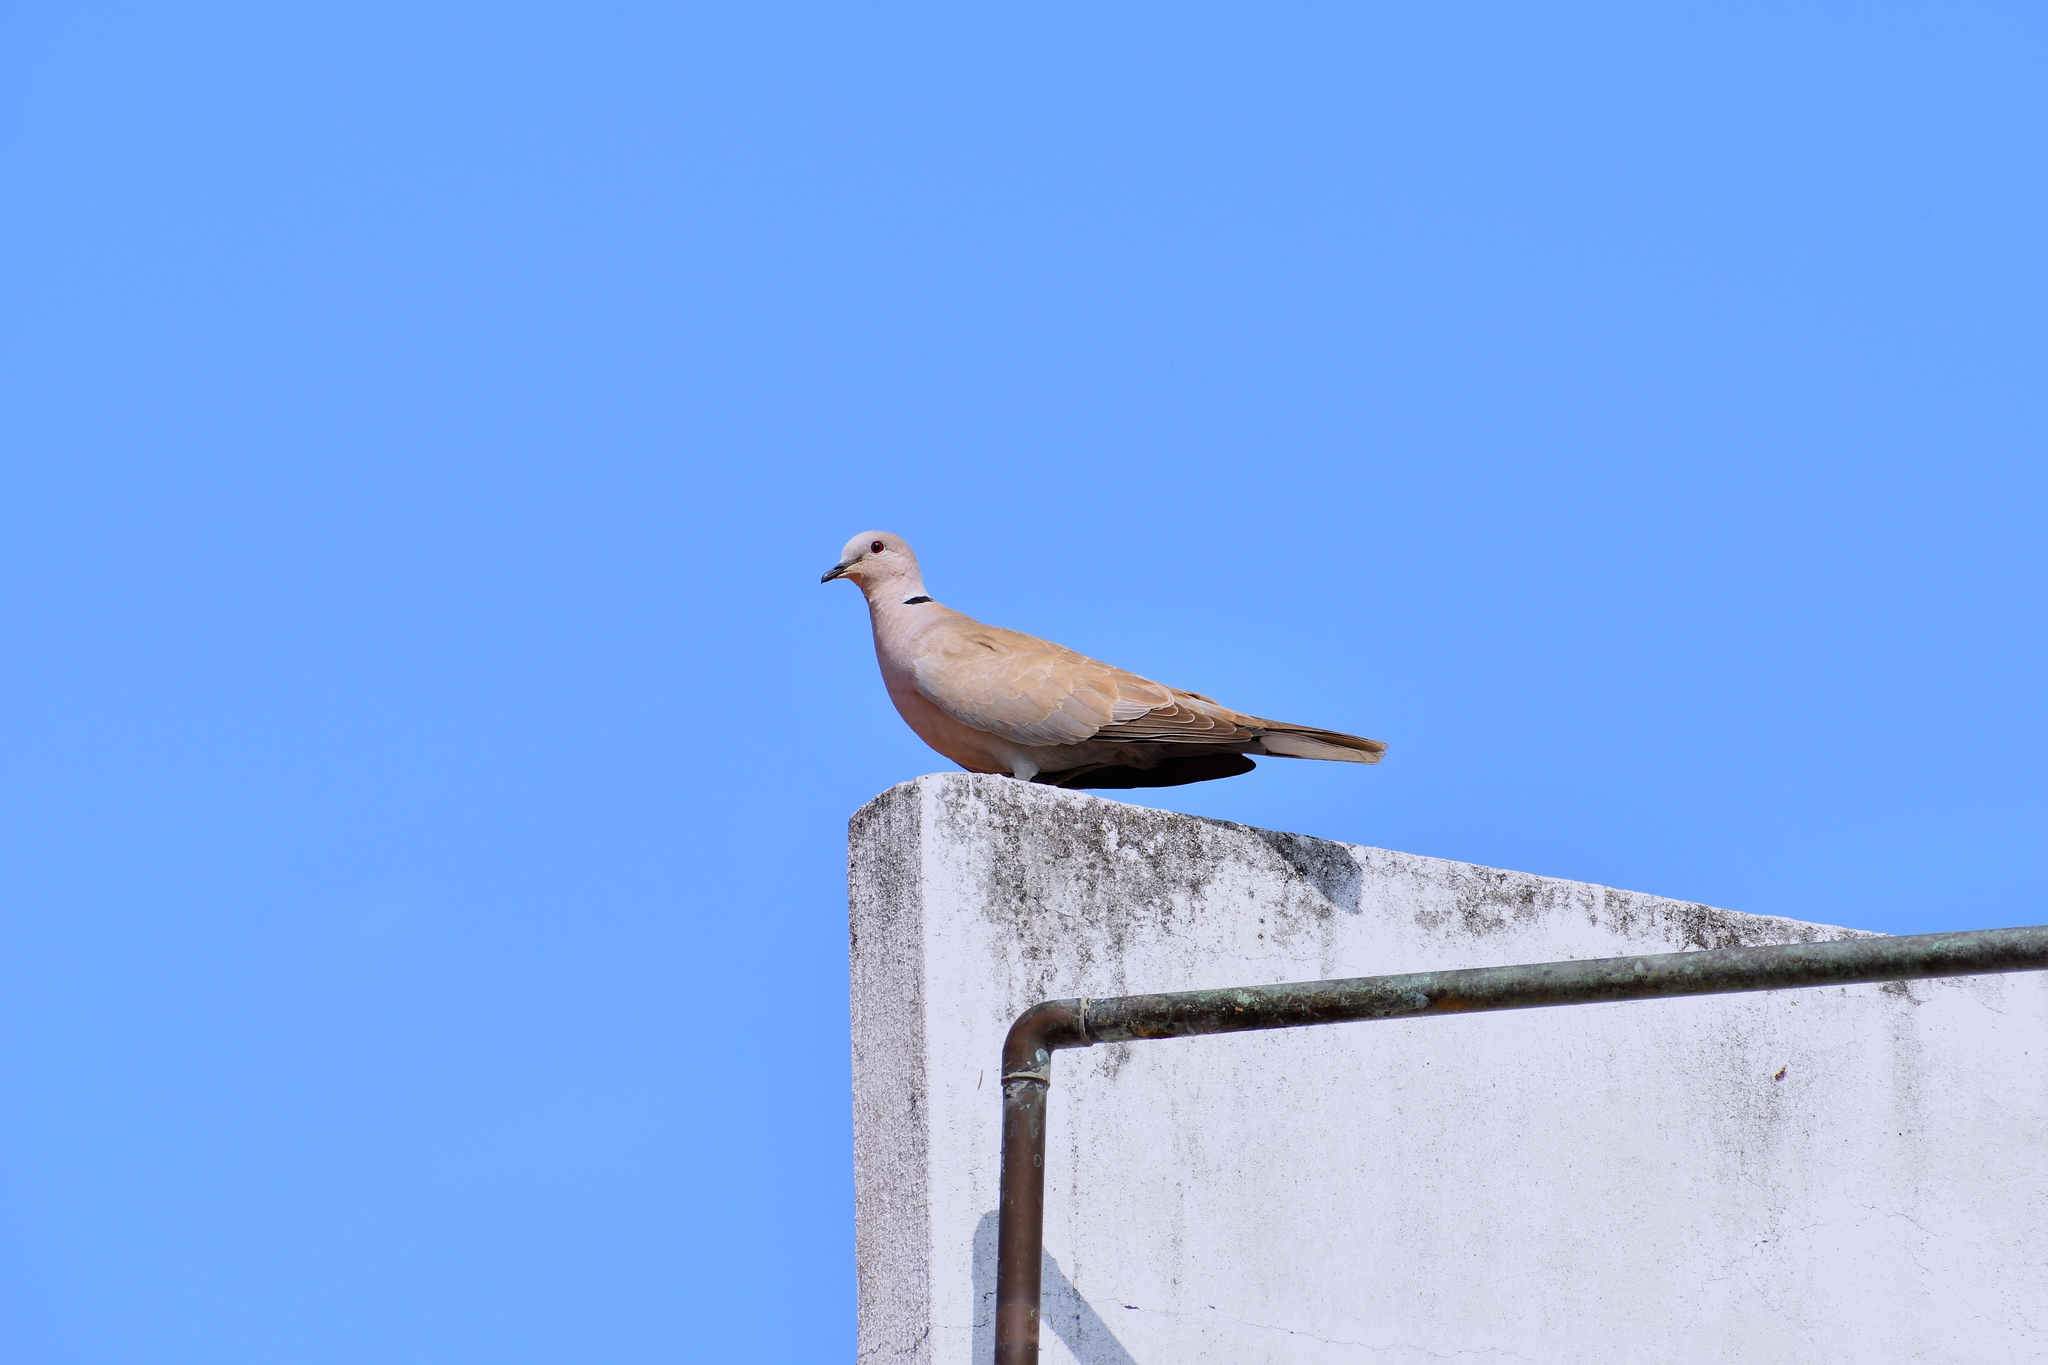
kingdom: Animalia
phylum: Chordata
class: Aves
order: Columbiformes
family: Columbidae
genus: Streptopelia
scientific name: Streptopelia decaocto
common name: Eurasian collared dove
